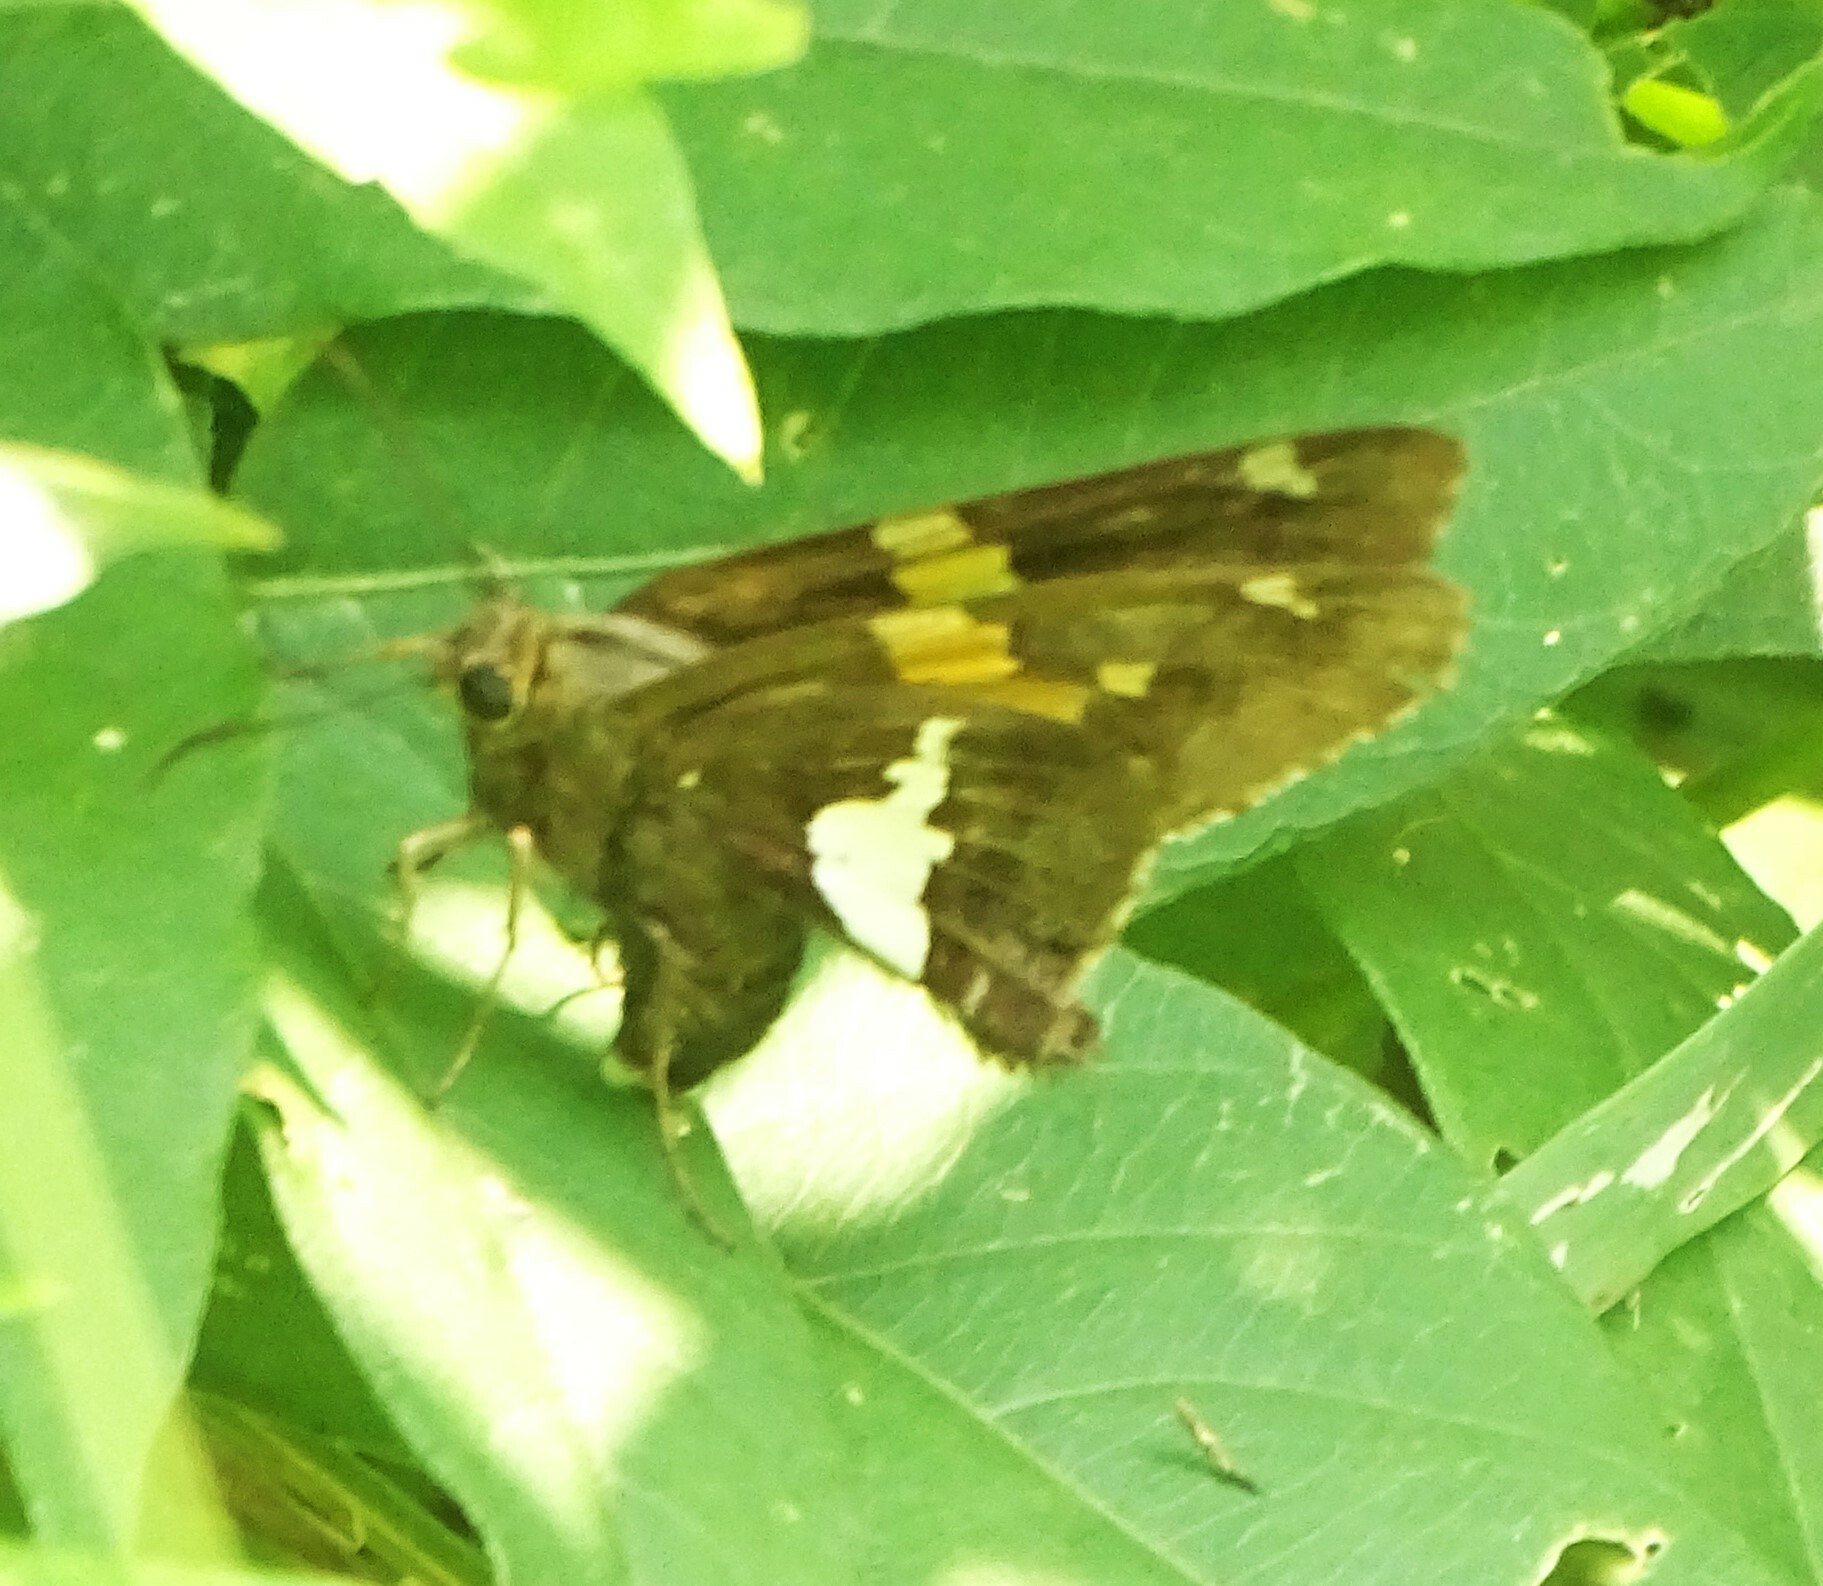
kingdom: Animalia
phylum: Arthropoda
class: Insecta
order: Lepidoptera
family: Hesperiidae
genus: Epargyreus
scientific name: Epargyreus clarus
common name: Silver-spotted skipper
